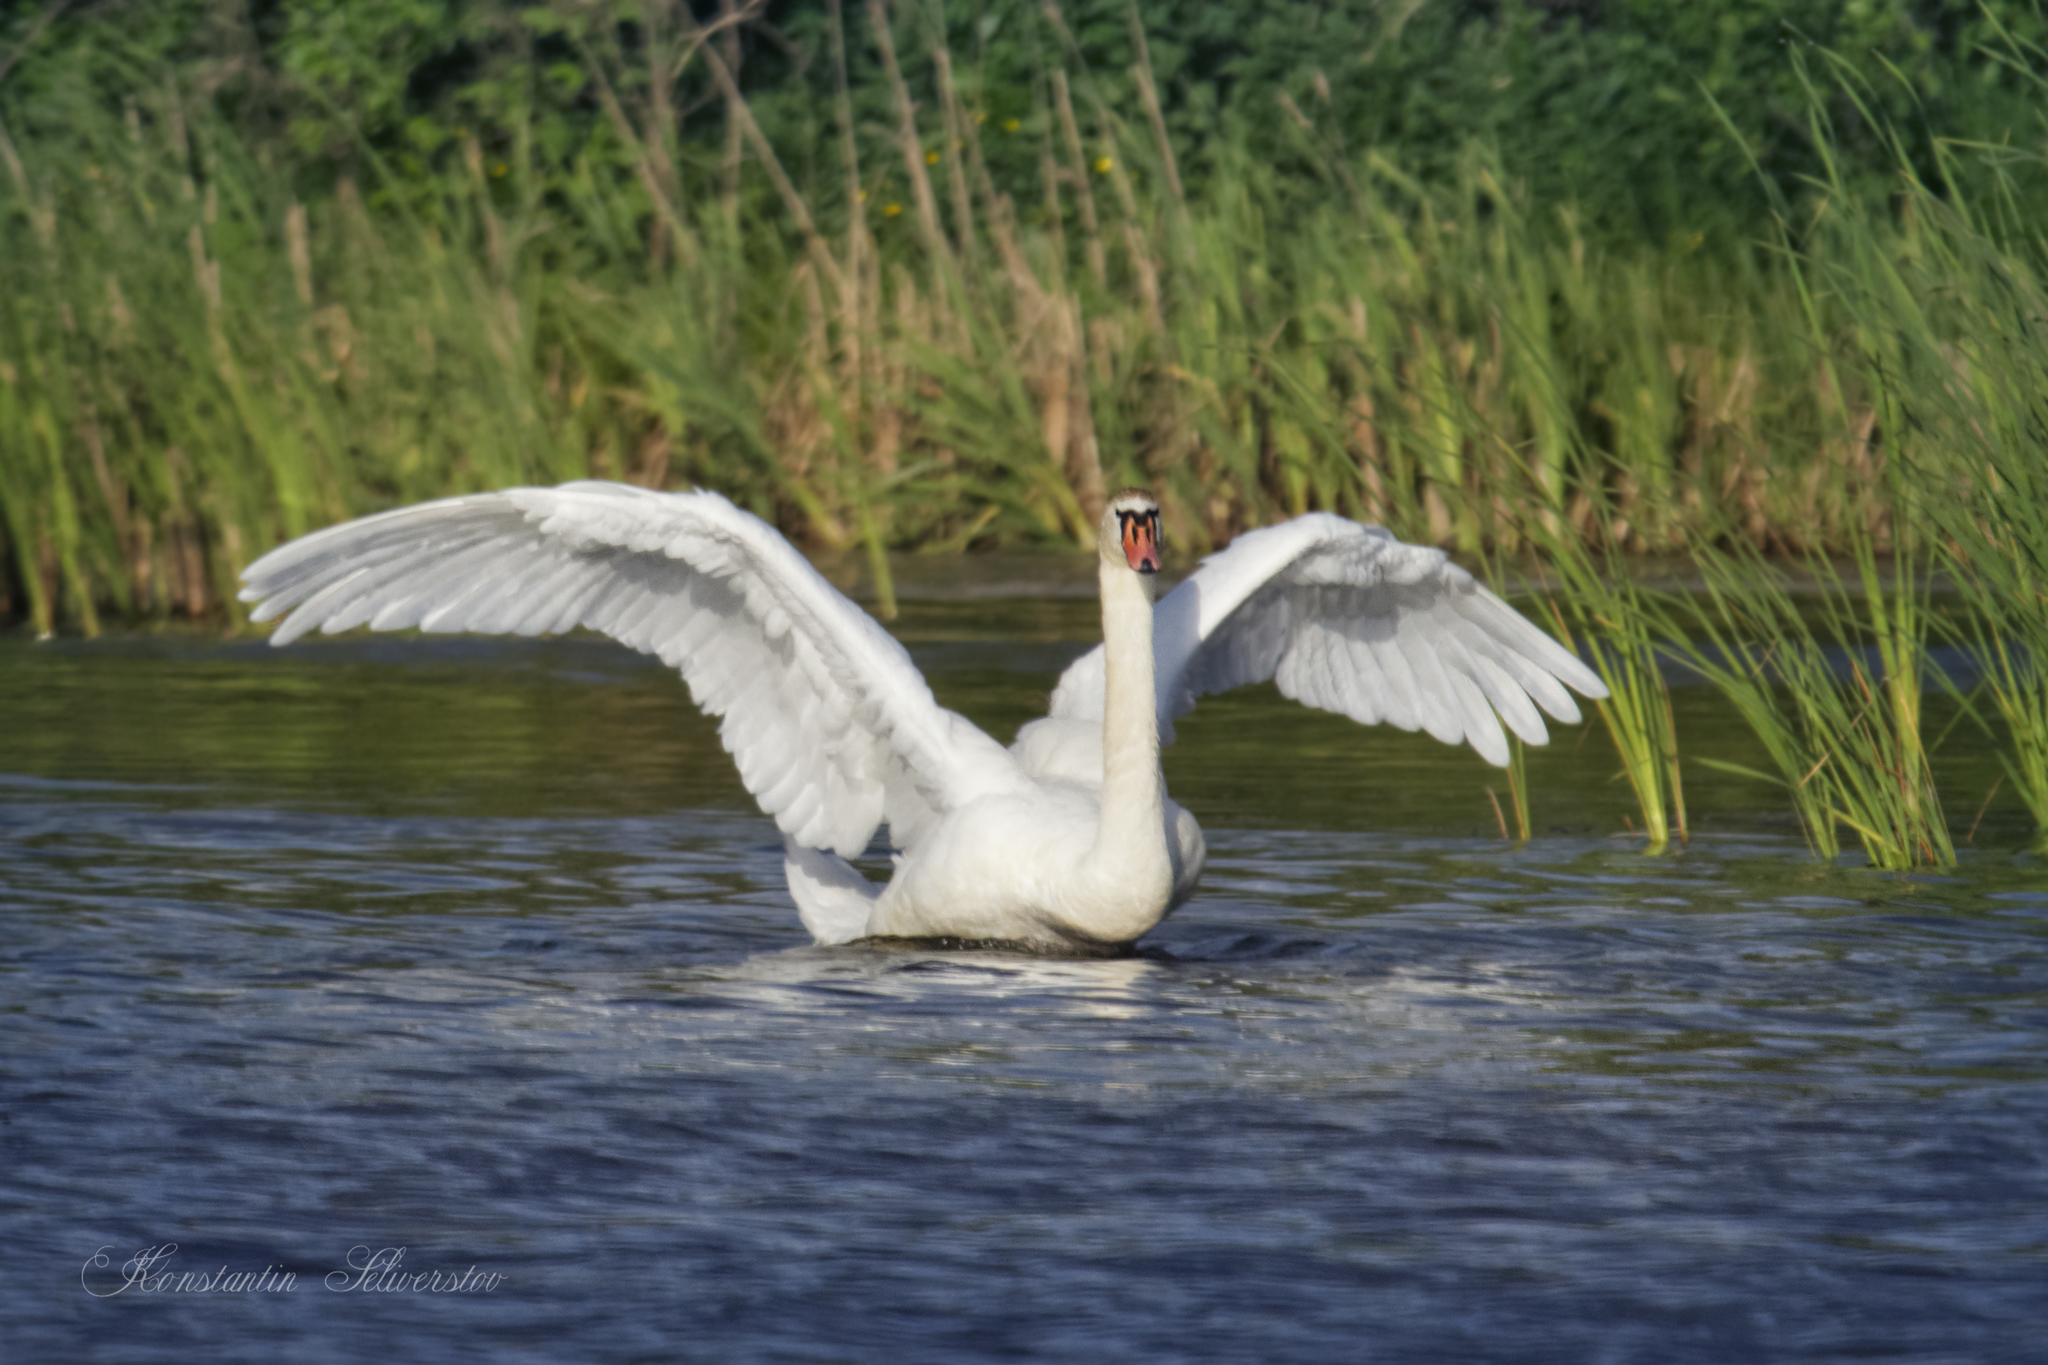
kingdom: Animalia
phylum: Chordata
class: Aves
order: Anseriformes
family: Anatidae
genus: Cygnus
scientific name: Cygnus olor
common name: Mute swan
